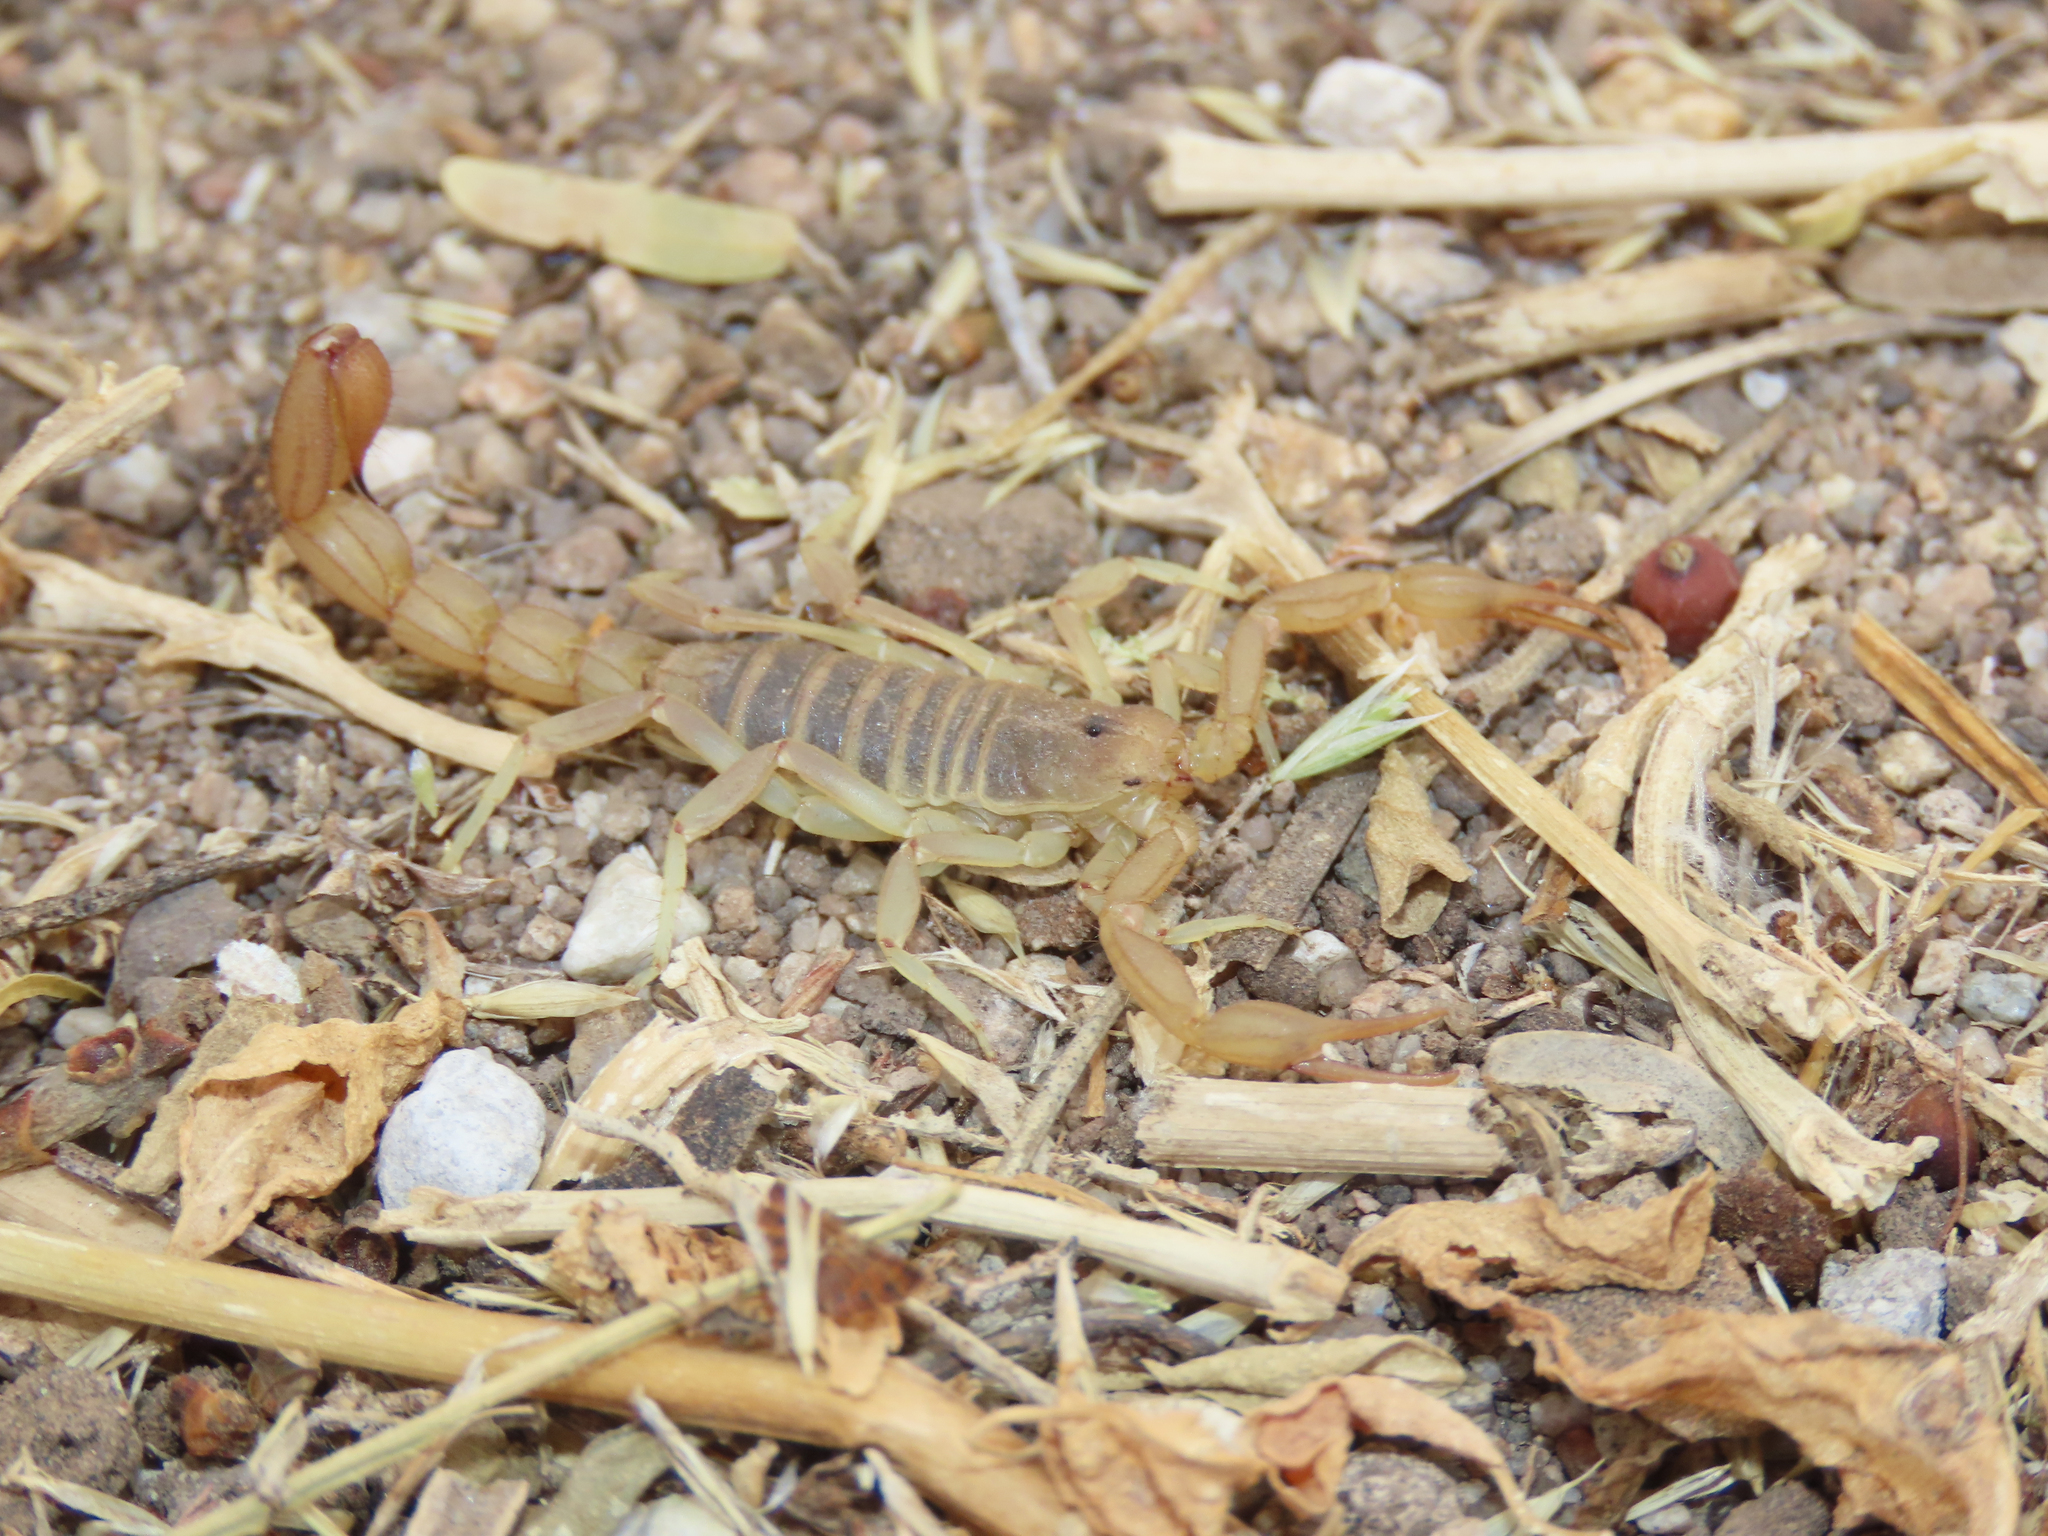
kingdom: Animalia
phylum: Arthropoda
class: Arachnida
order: Scorpiones
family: Vaejovidae
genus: Paravaejovis
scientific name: Paravaejovis confusus
